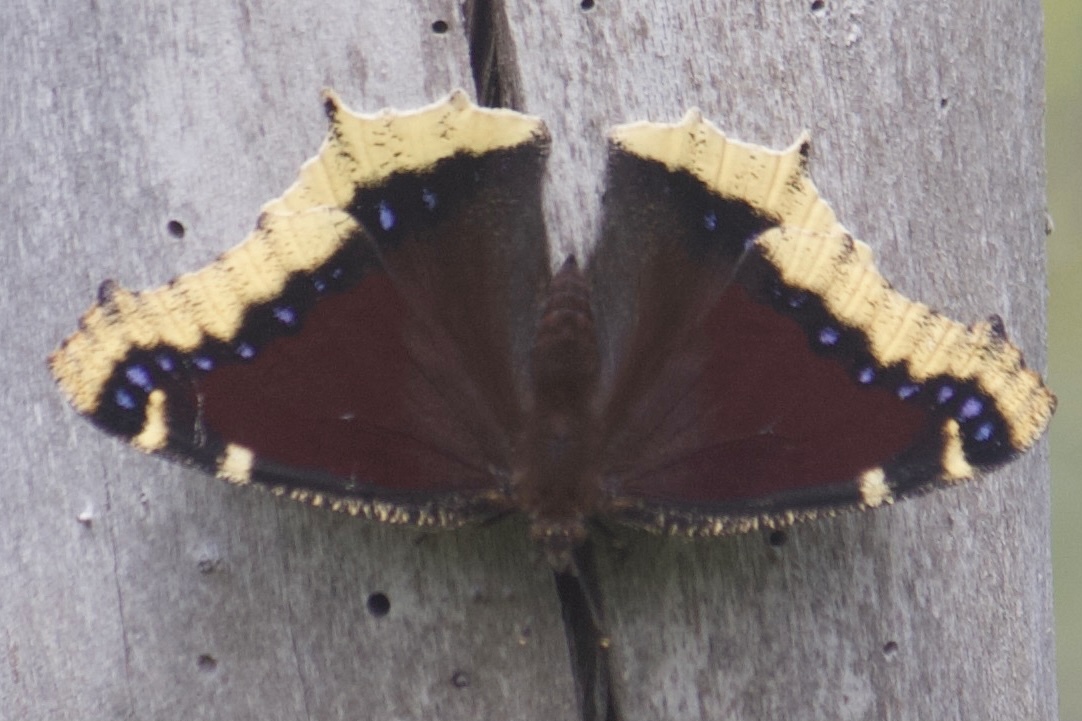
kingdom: Animalia
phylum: Arthropoda
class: Insecta
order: Lepidoptera
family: Nymphalidae
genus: Nymphalis
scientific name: Nymphalis antiopa
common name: Camberwell beauty
